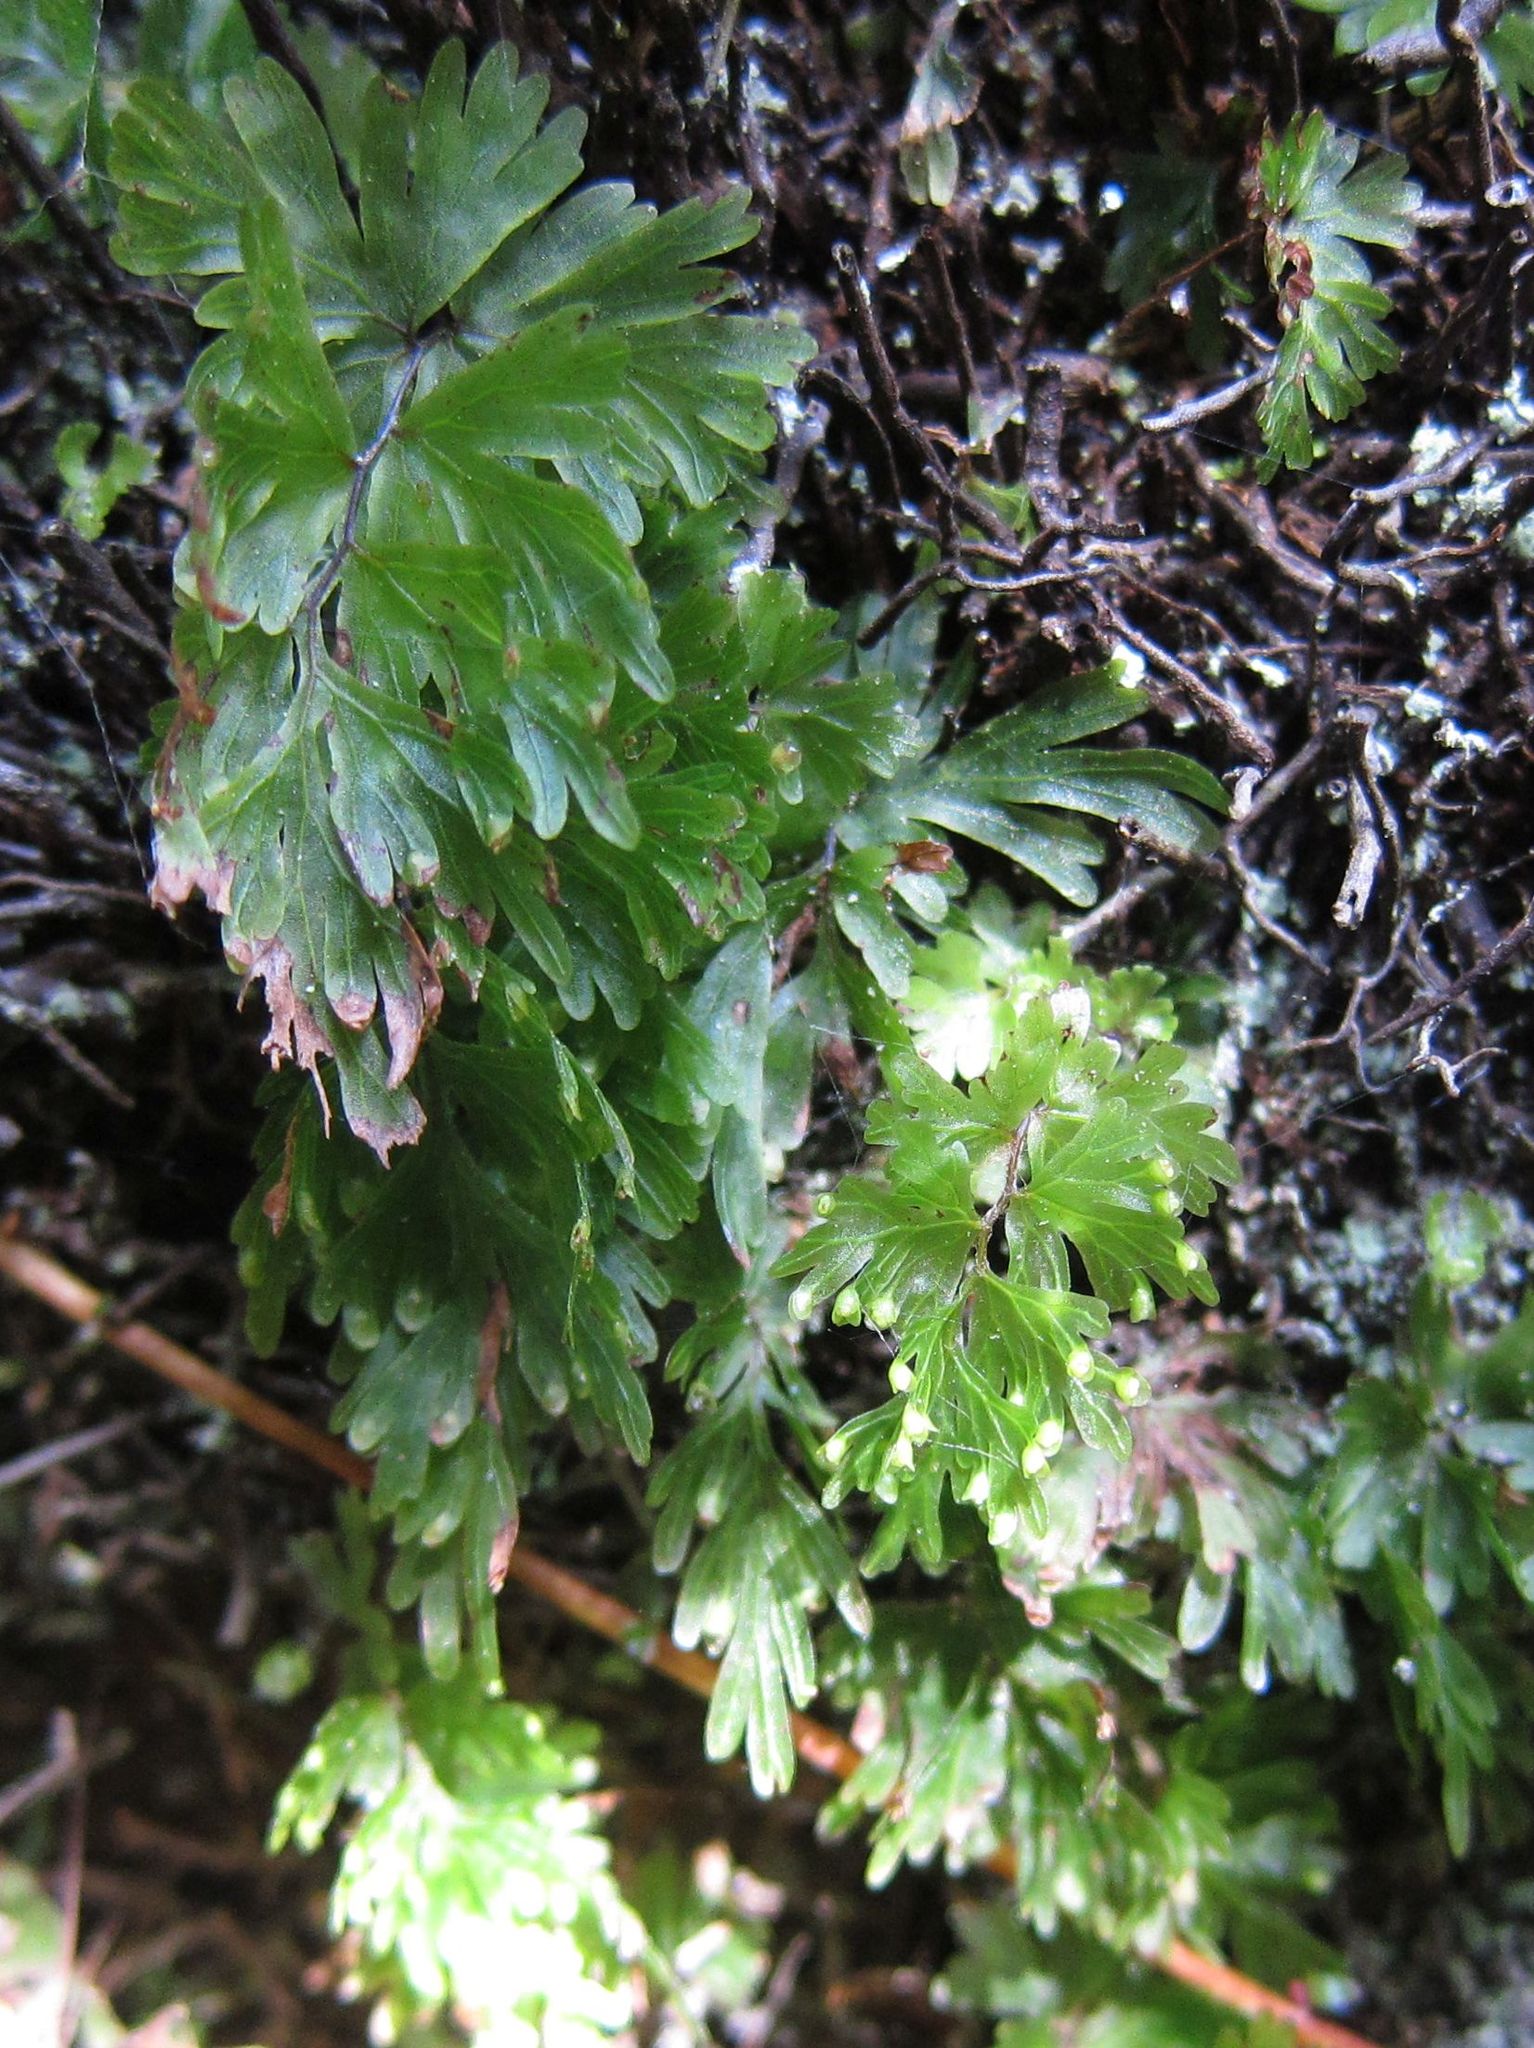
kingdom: Plantae
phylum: Tracheophyta
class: Polypodiopsida
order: Hymenophyllales
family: Hymenophyllaceae
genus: Hymenophyllum
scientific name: Hymenophyllum flabellatum
